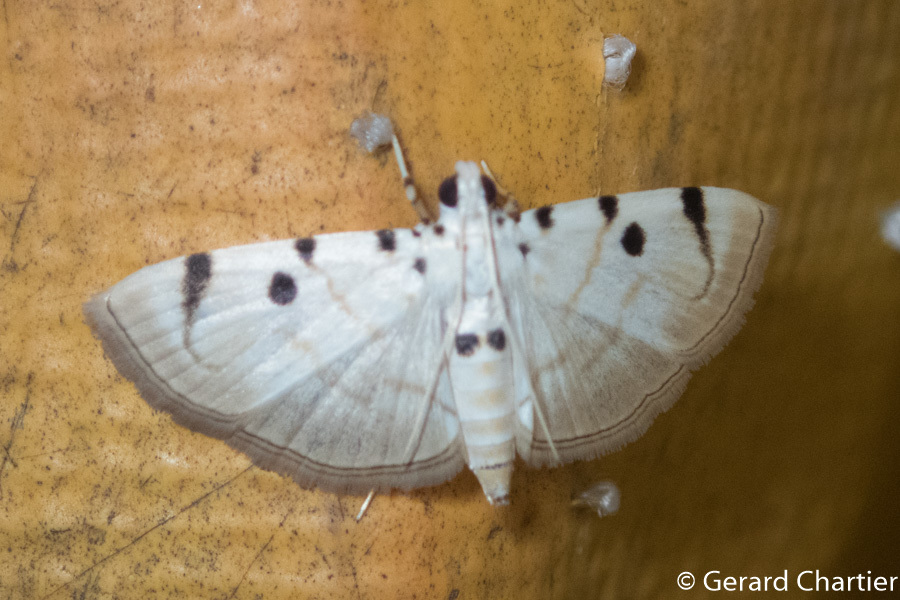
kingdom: Animalia
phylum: Arthropoda
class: Insecta
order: Lepidoptera
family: Crambidae
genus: Pycnarmon
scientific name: Pycnarmon marginalis
